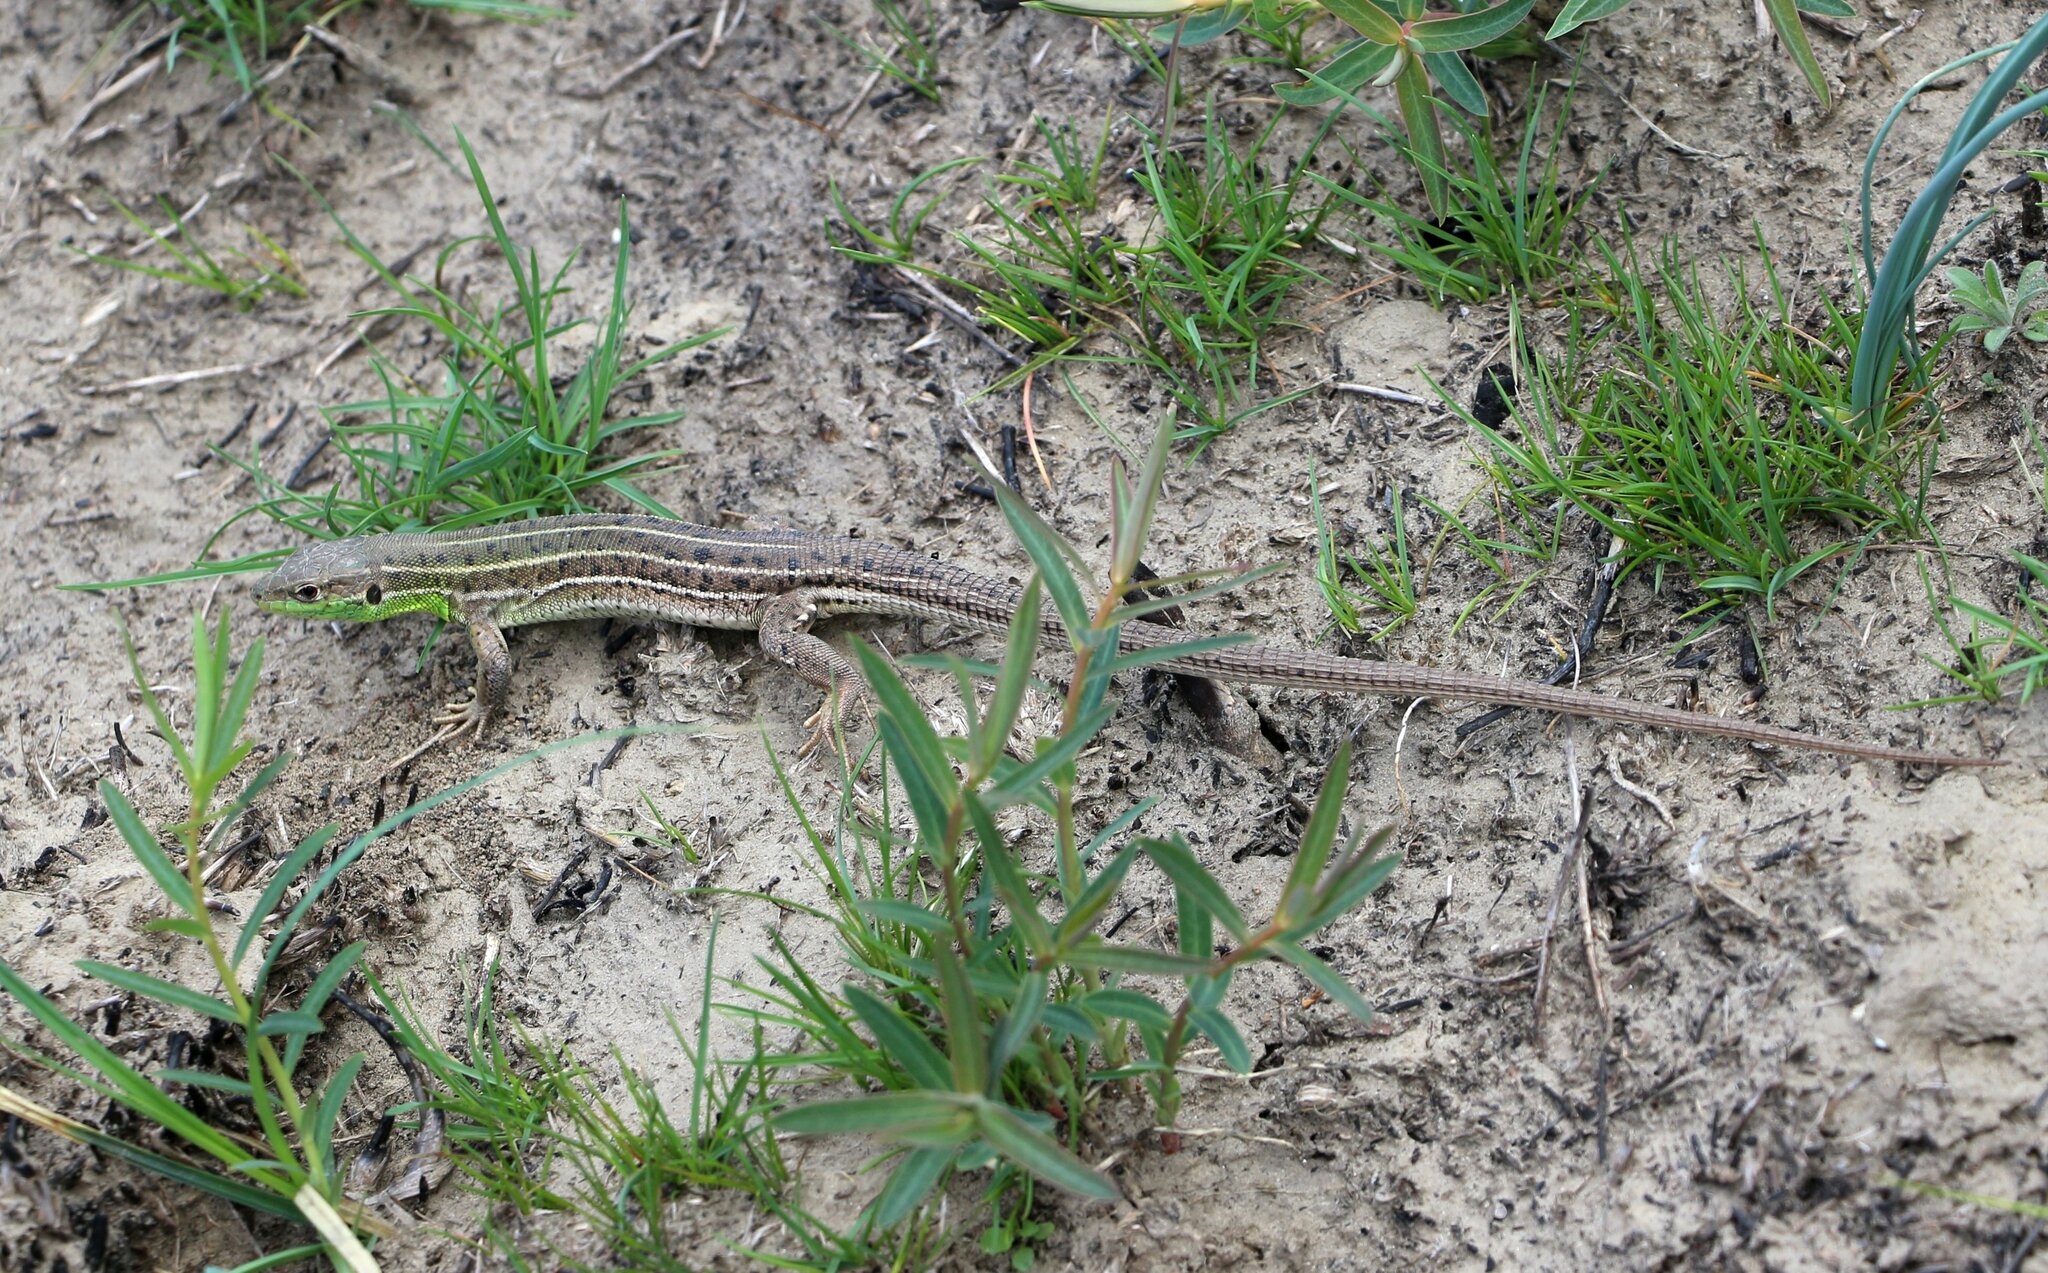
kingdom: Animalia
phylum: Chordata
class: Squamata
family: Lacertidae
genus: Lacerta
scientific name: Lacerta strigata
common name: Caspian green lizard
